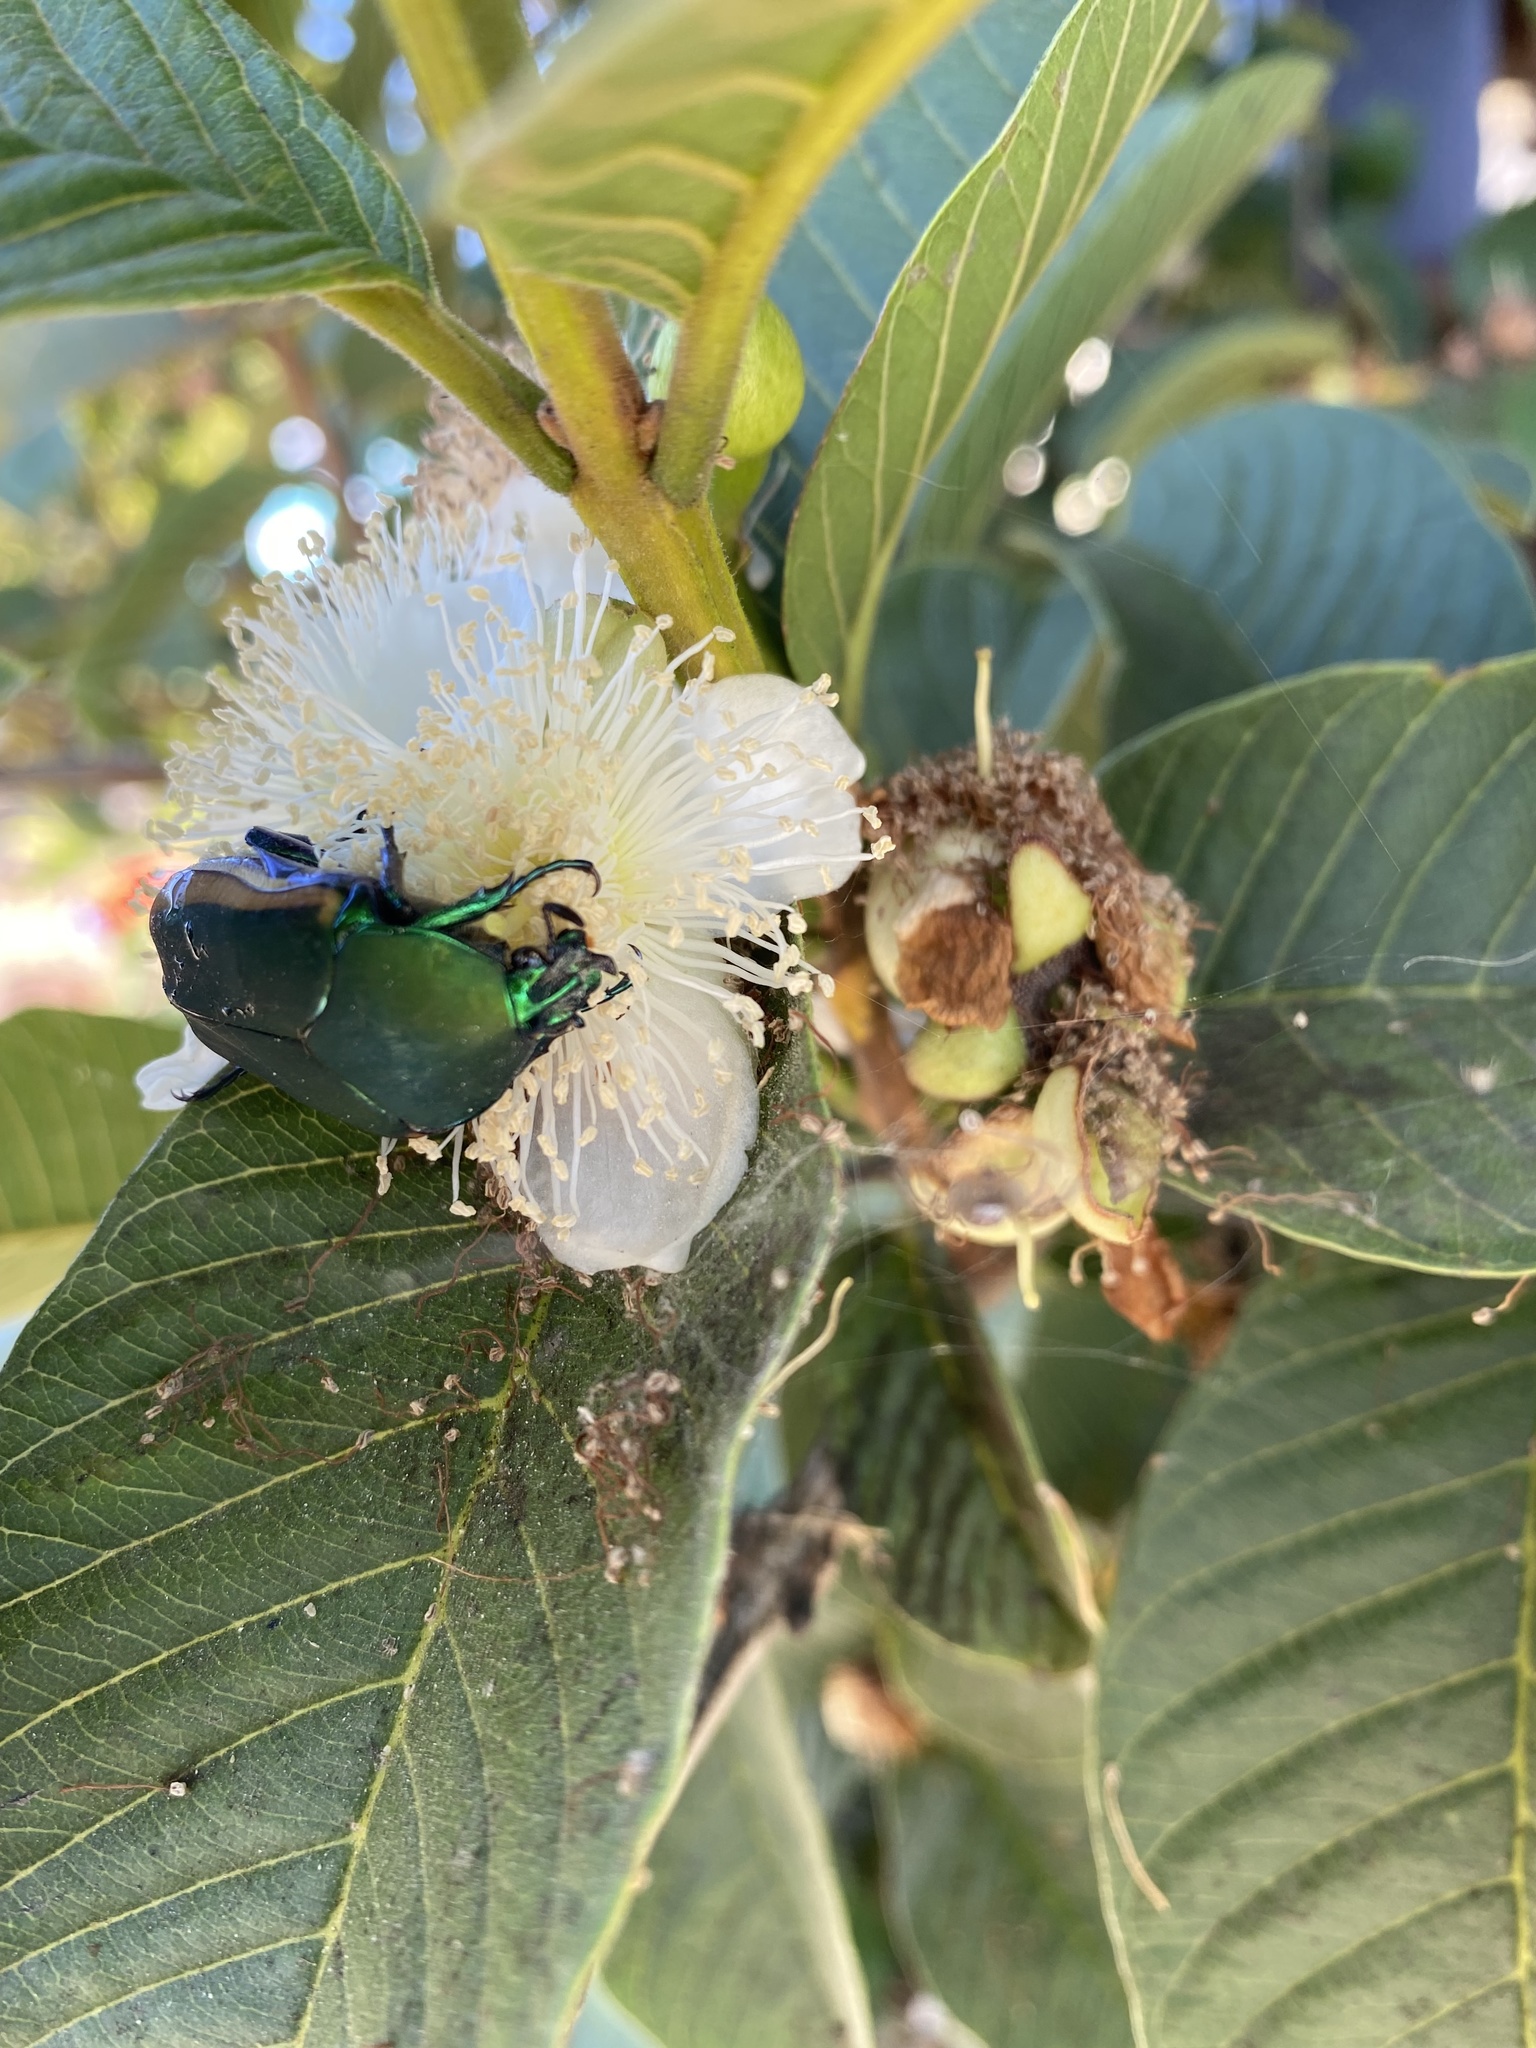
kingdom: Animalia
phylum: Arthropoda
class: Insecta
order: Coleoptera
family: Scarabaeidae
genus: Cotinis
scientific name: Cotinis mutabilis
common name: Figeater beetle
